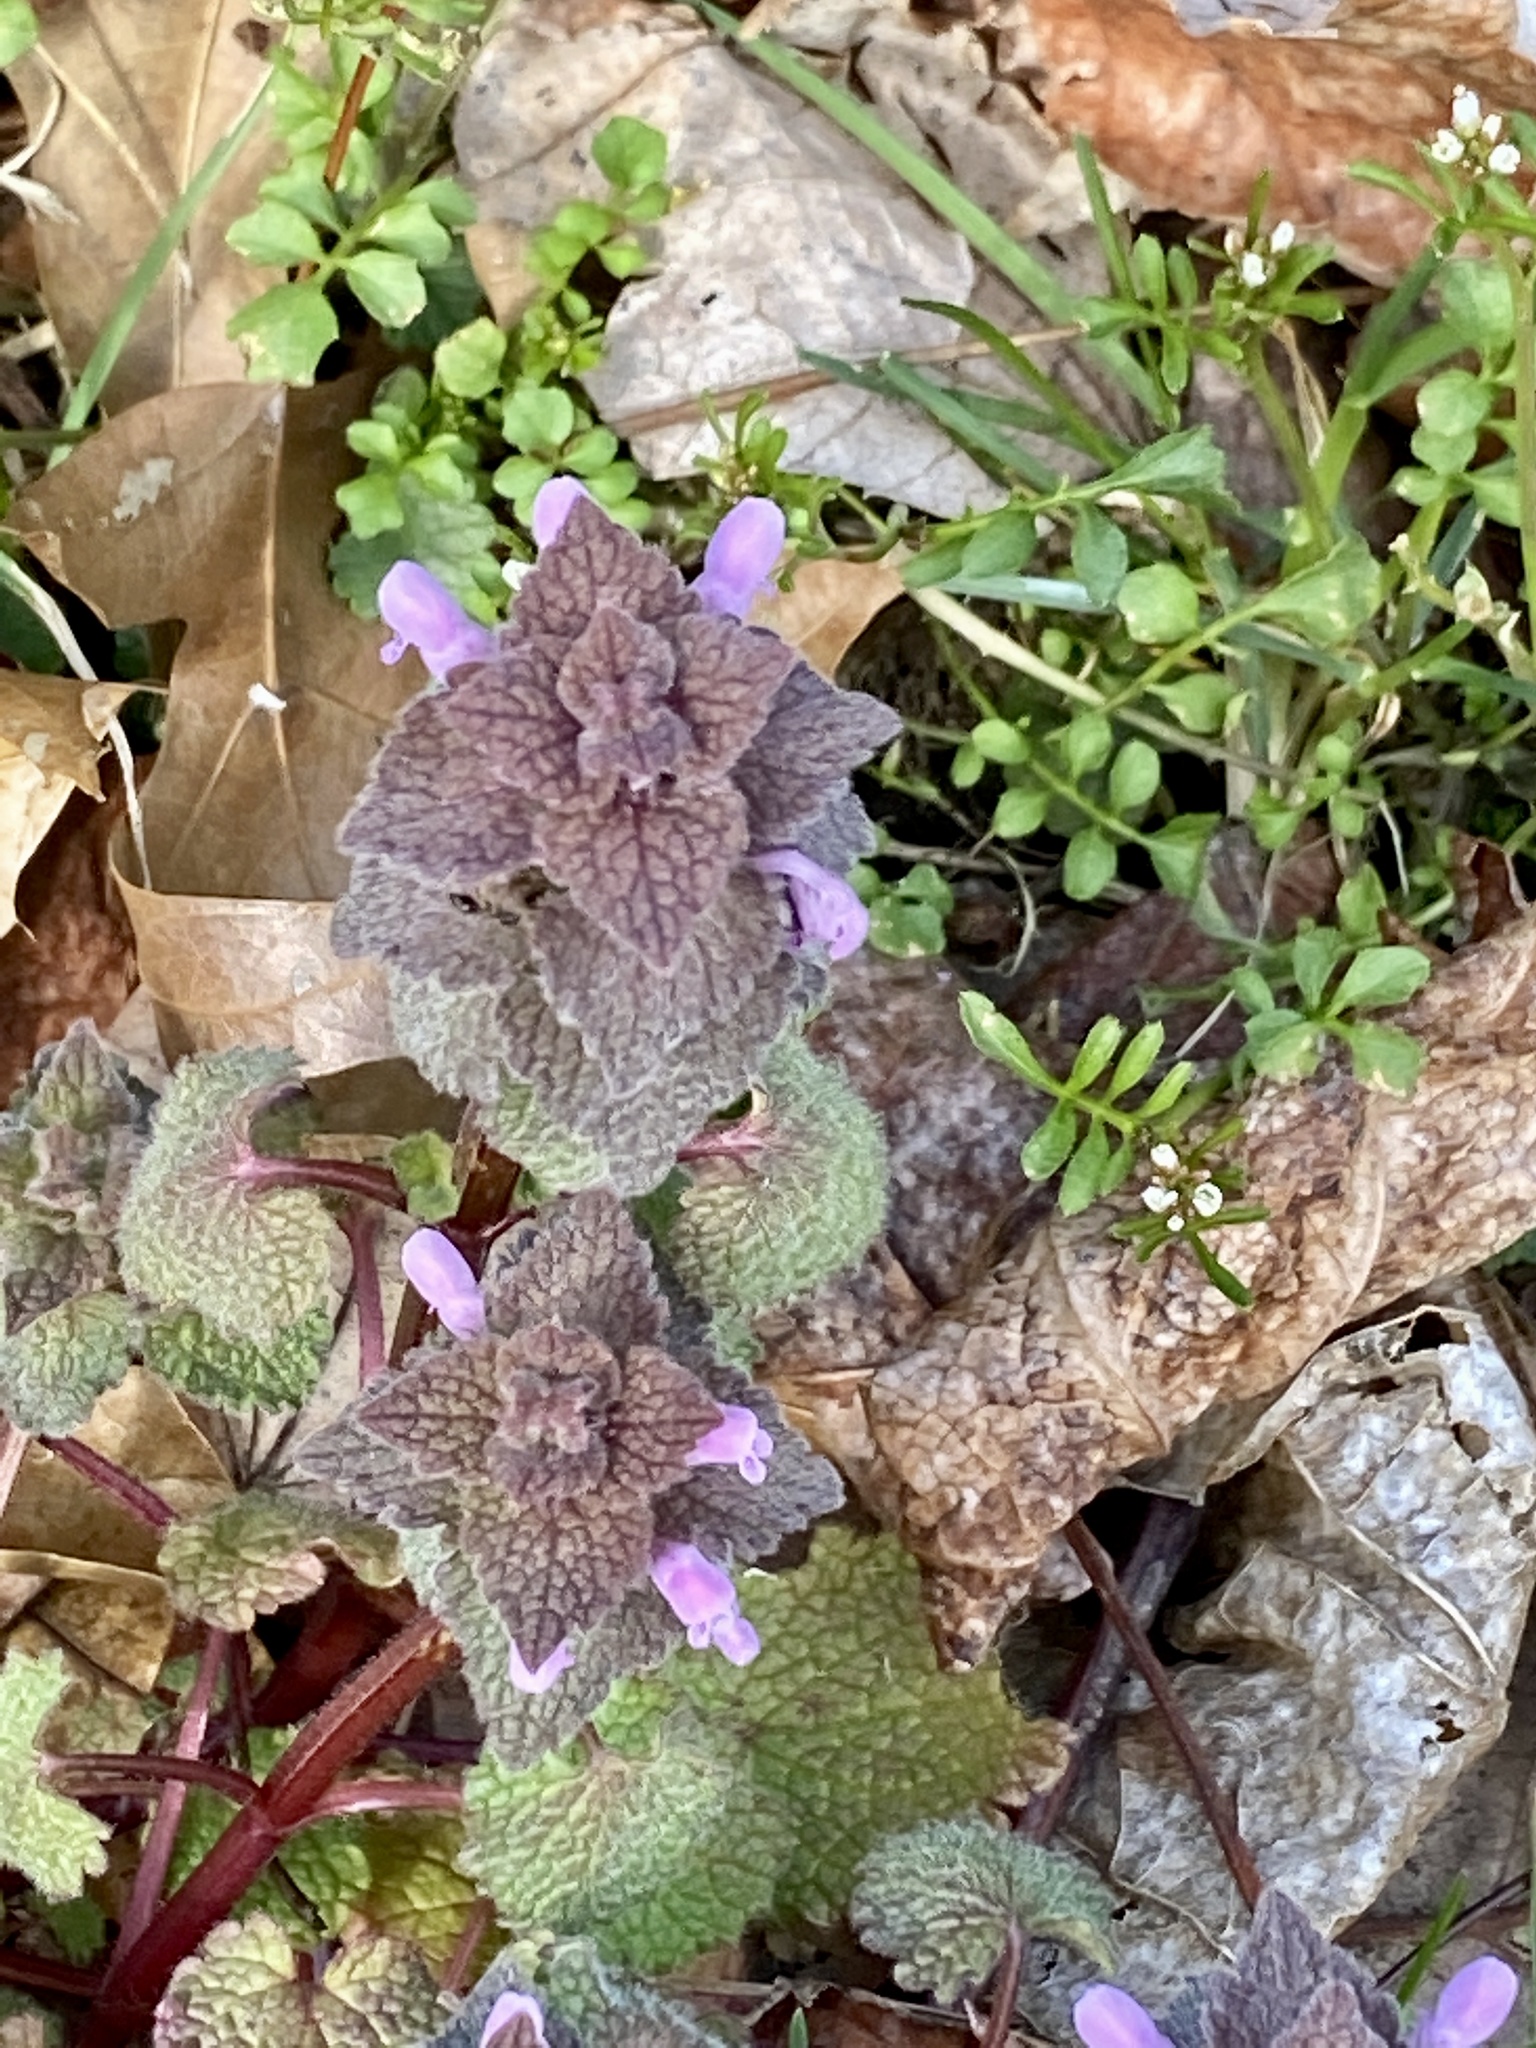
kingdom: Plantae
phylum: Tracheophyta
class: Magnoliopsida
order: Lamiales
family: Lamiaceae
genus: Lamium
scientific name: Lamium purpureum
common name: Red dead-nettle
